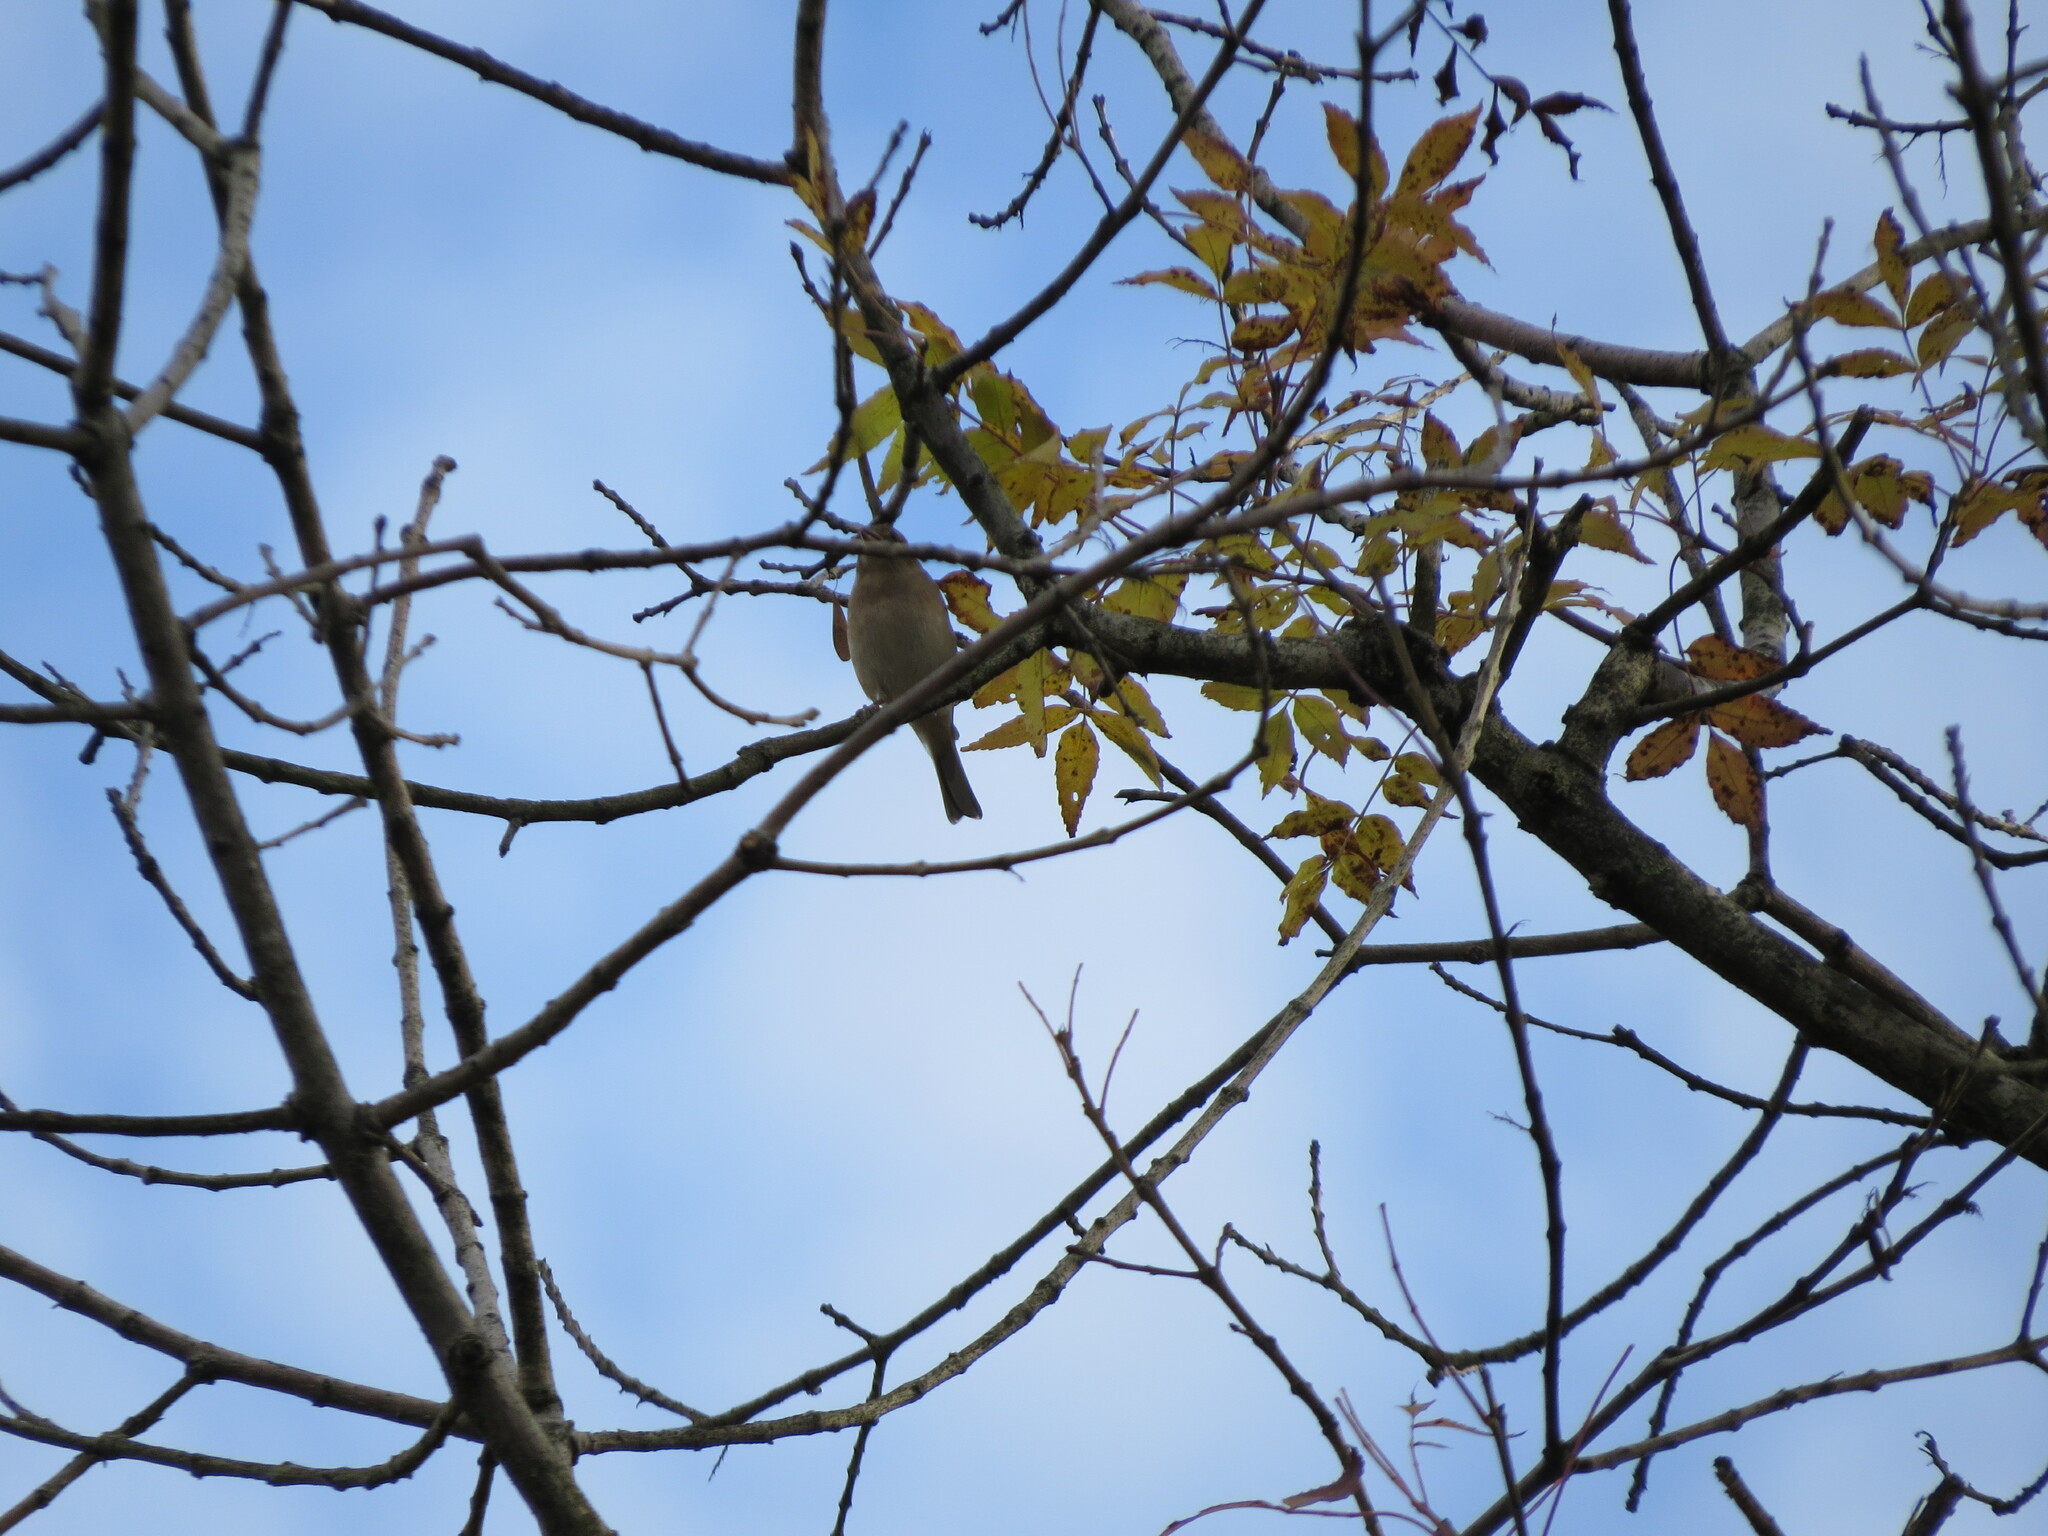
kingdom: Animalia
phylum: Chordata
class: Aves
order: Passeriformes
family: Fringillidae
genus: Fringilla
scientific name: Fringilla coelebs
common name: Common chaffinch
